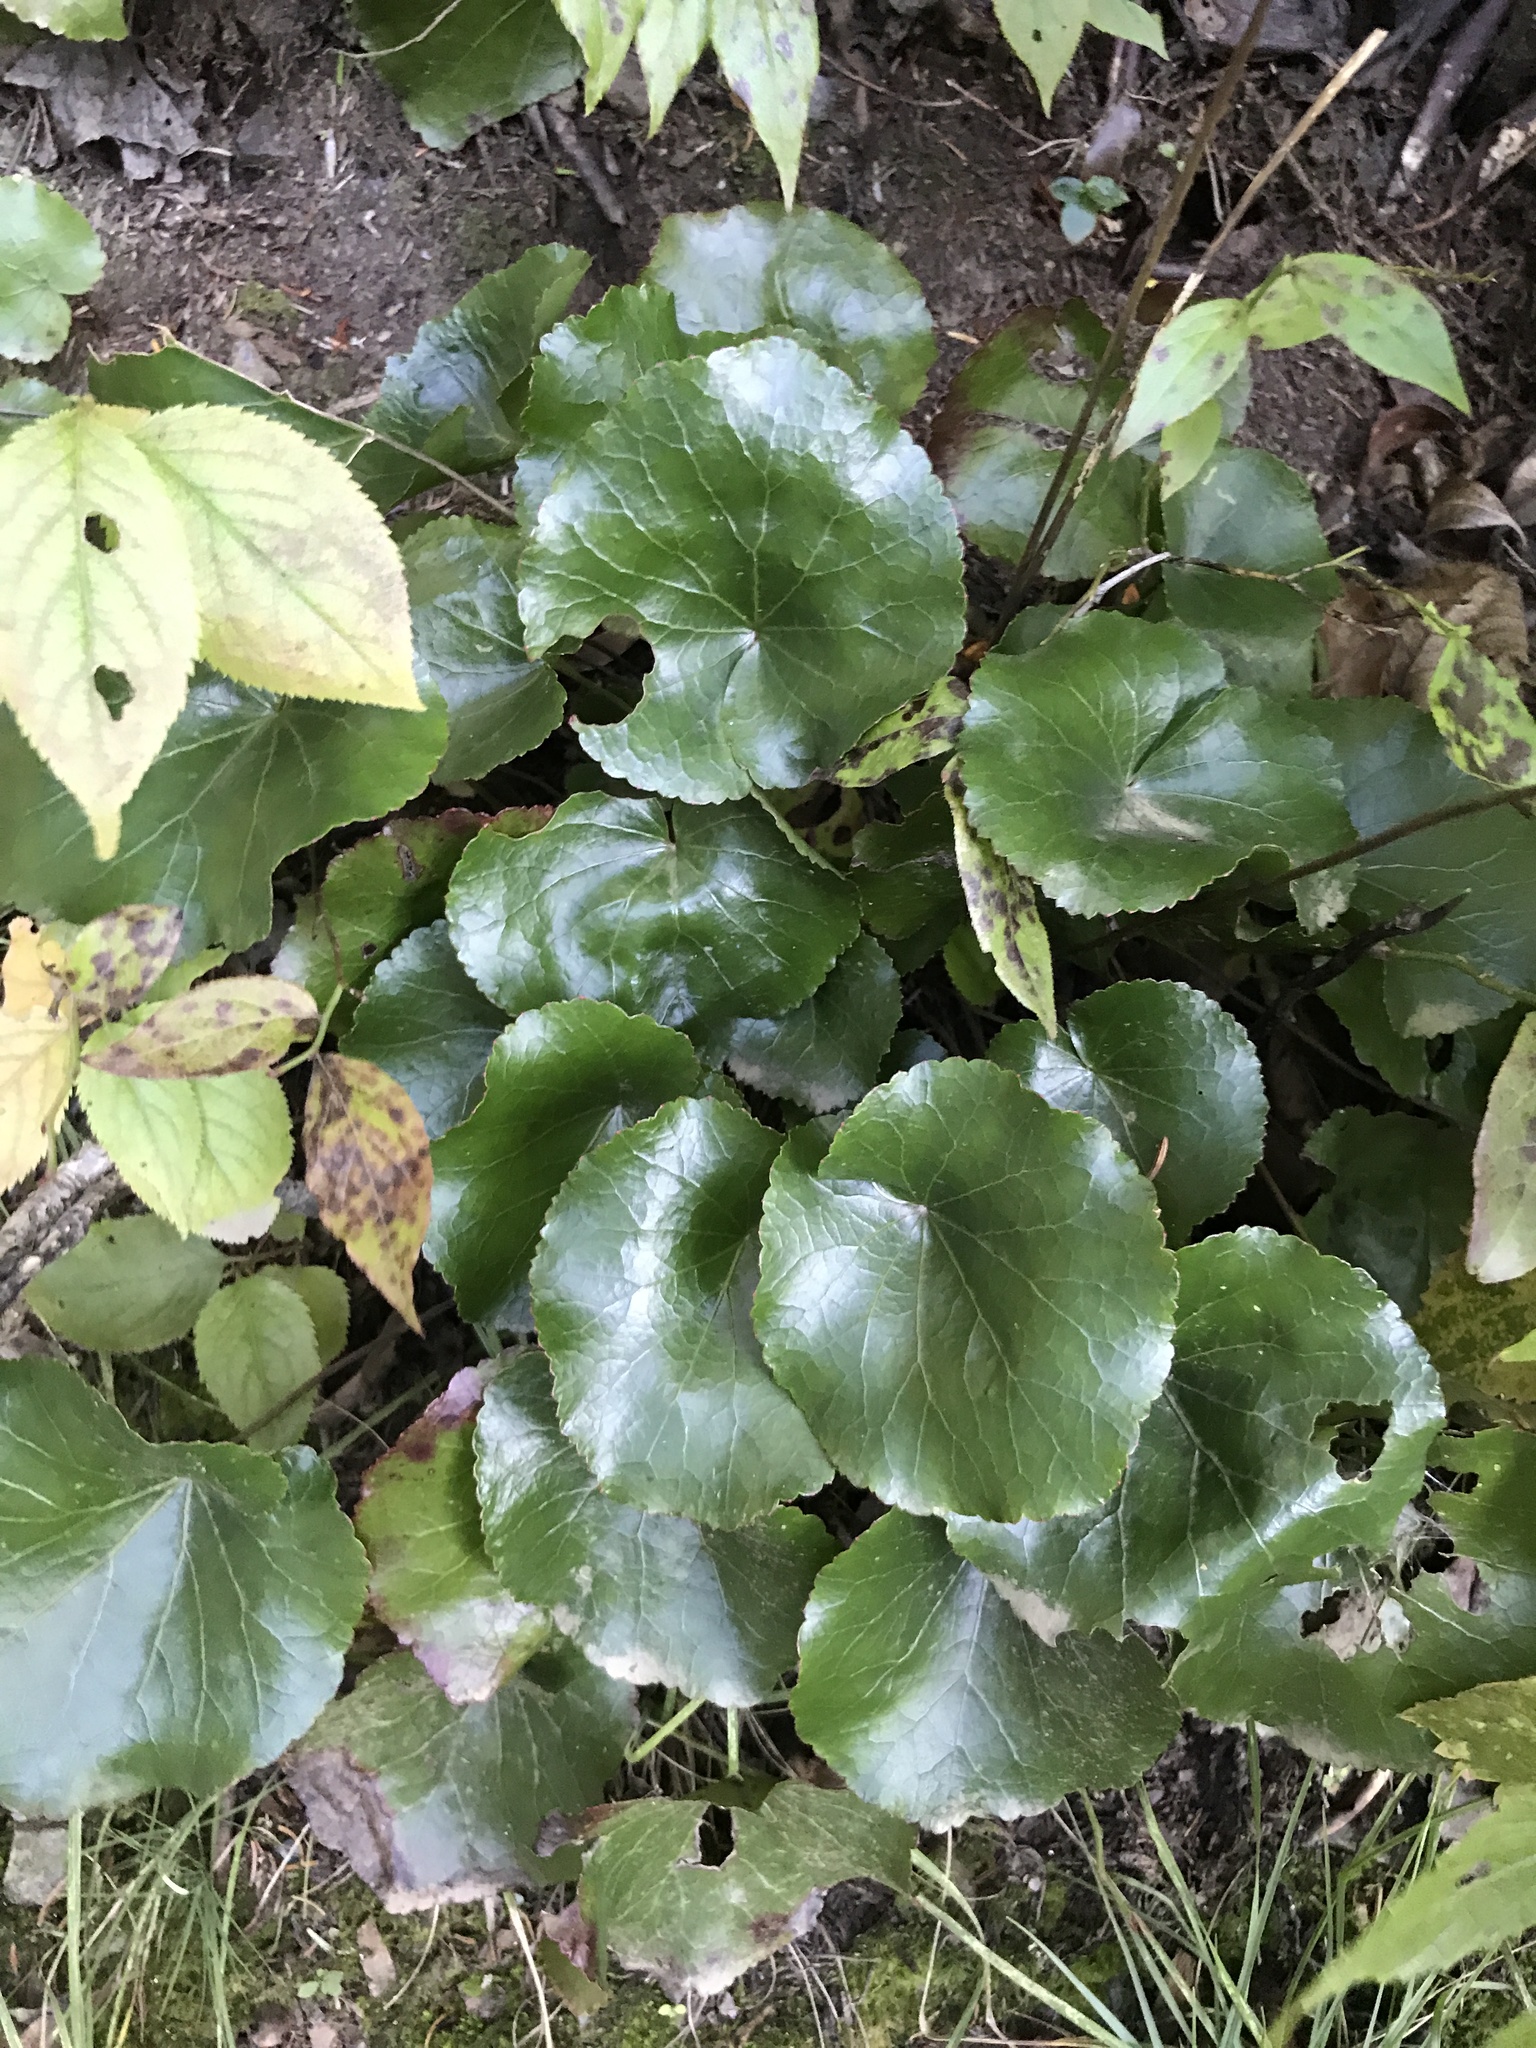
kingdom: Plantae
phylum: Tracheophyta
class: Magnoliopsida
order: Ericales
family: Diapensiaceae
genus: Galax
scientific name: Galax urceolata
